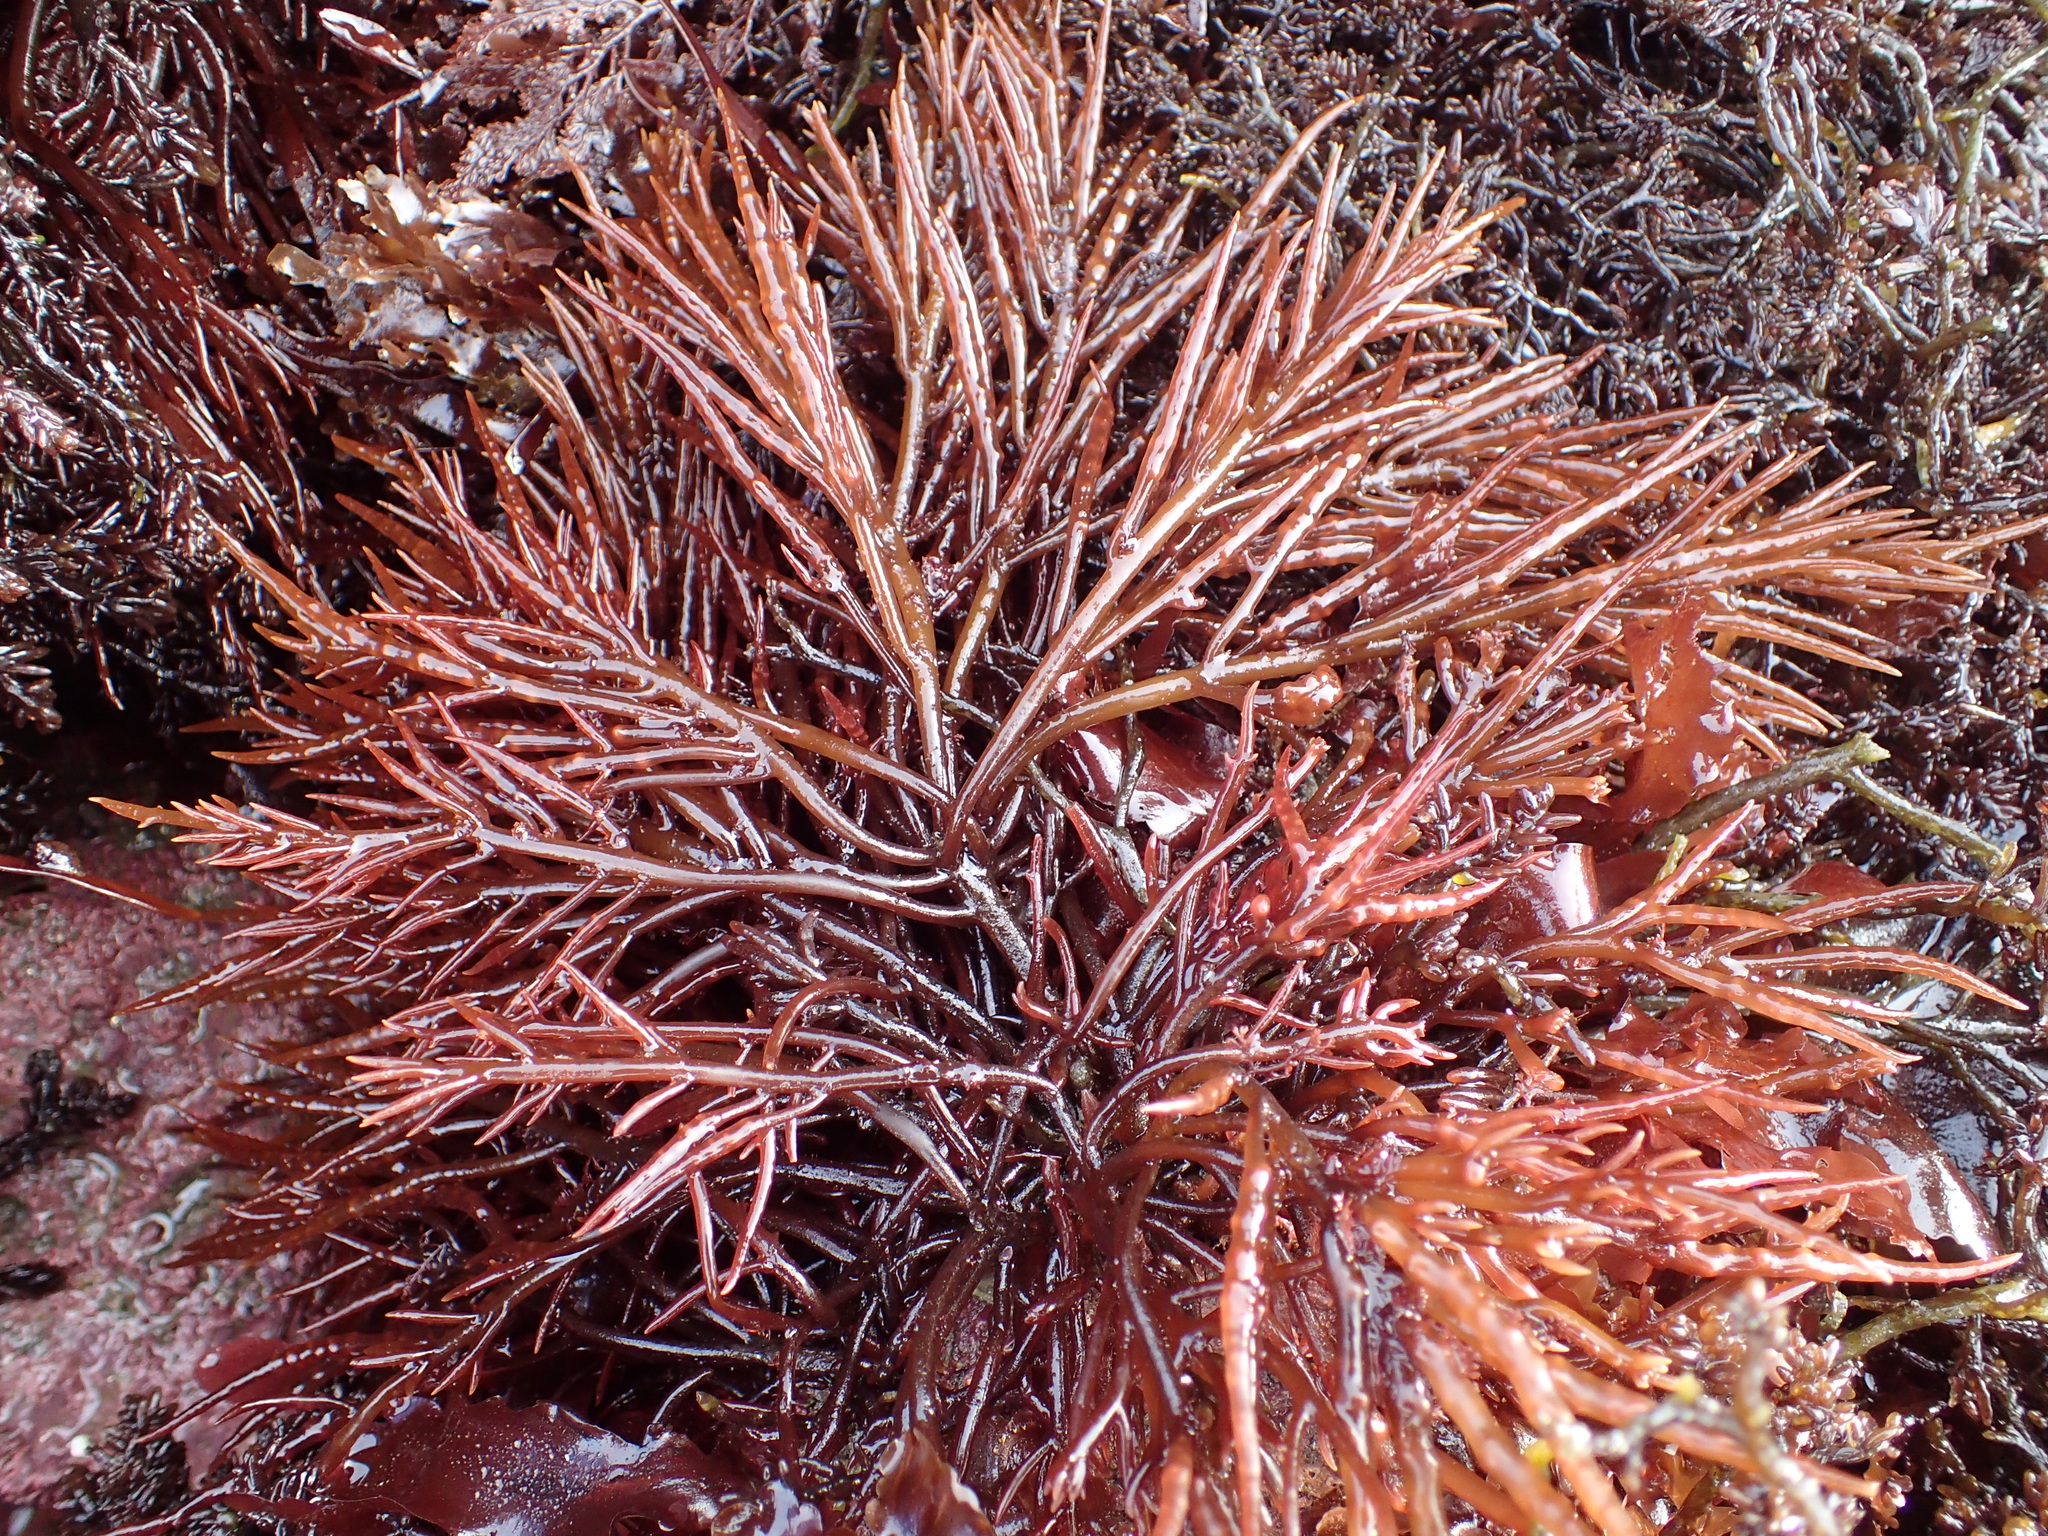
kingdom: Plantae
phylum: Rhodophyta
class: Florideophyceae
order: Gigartinales
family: Solieriaceae
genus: Sarcodiotheca
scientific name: Sarcodiotheca gaudichaudii
